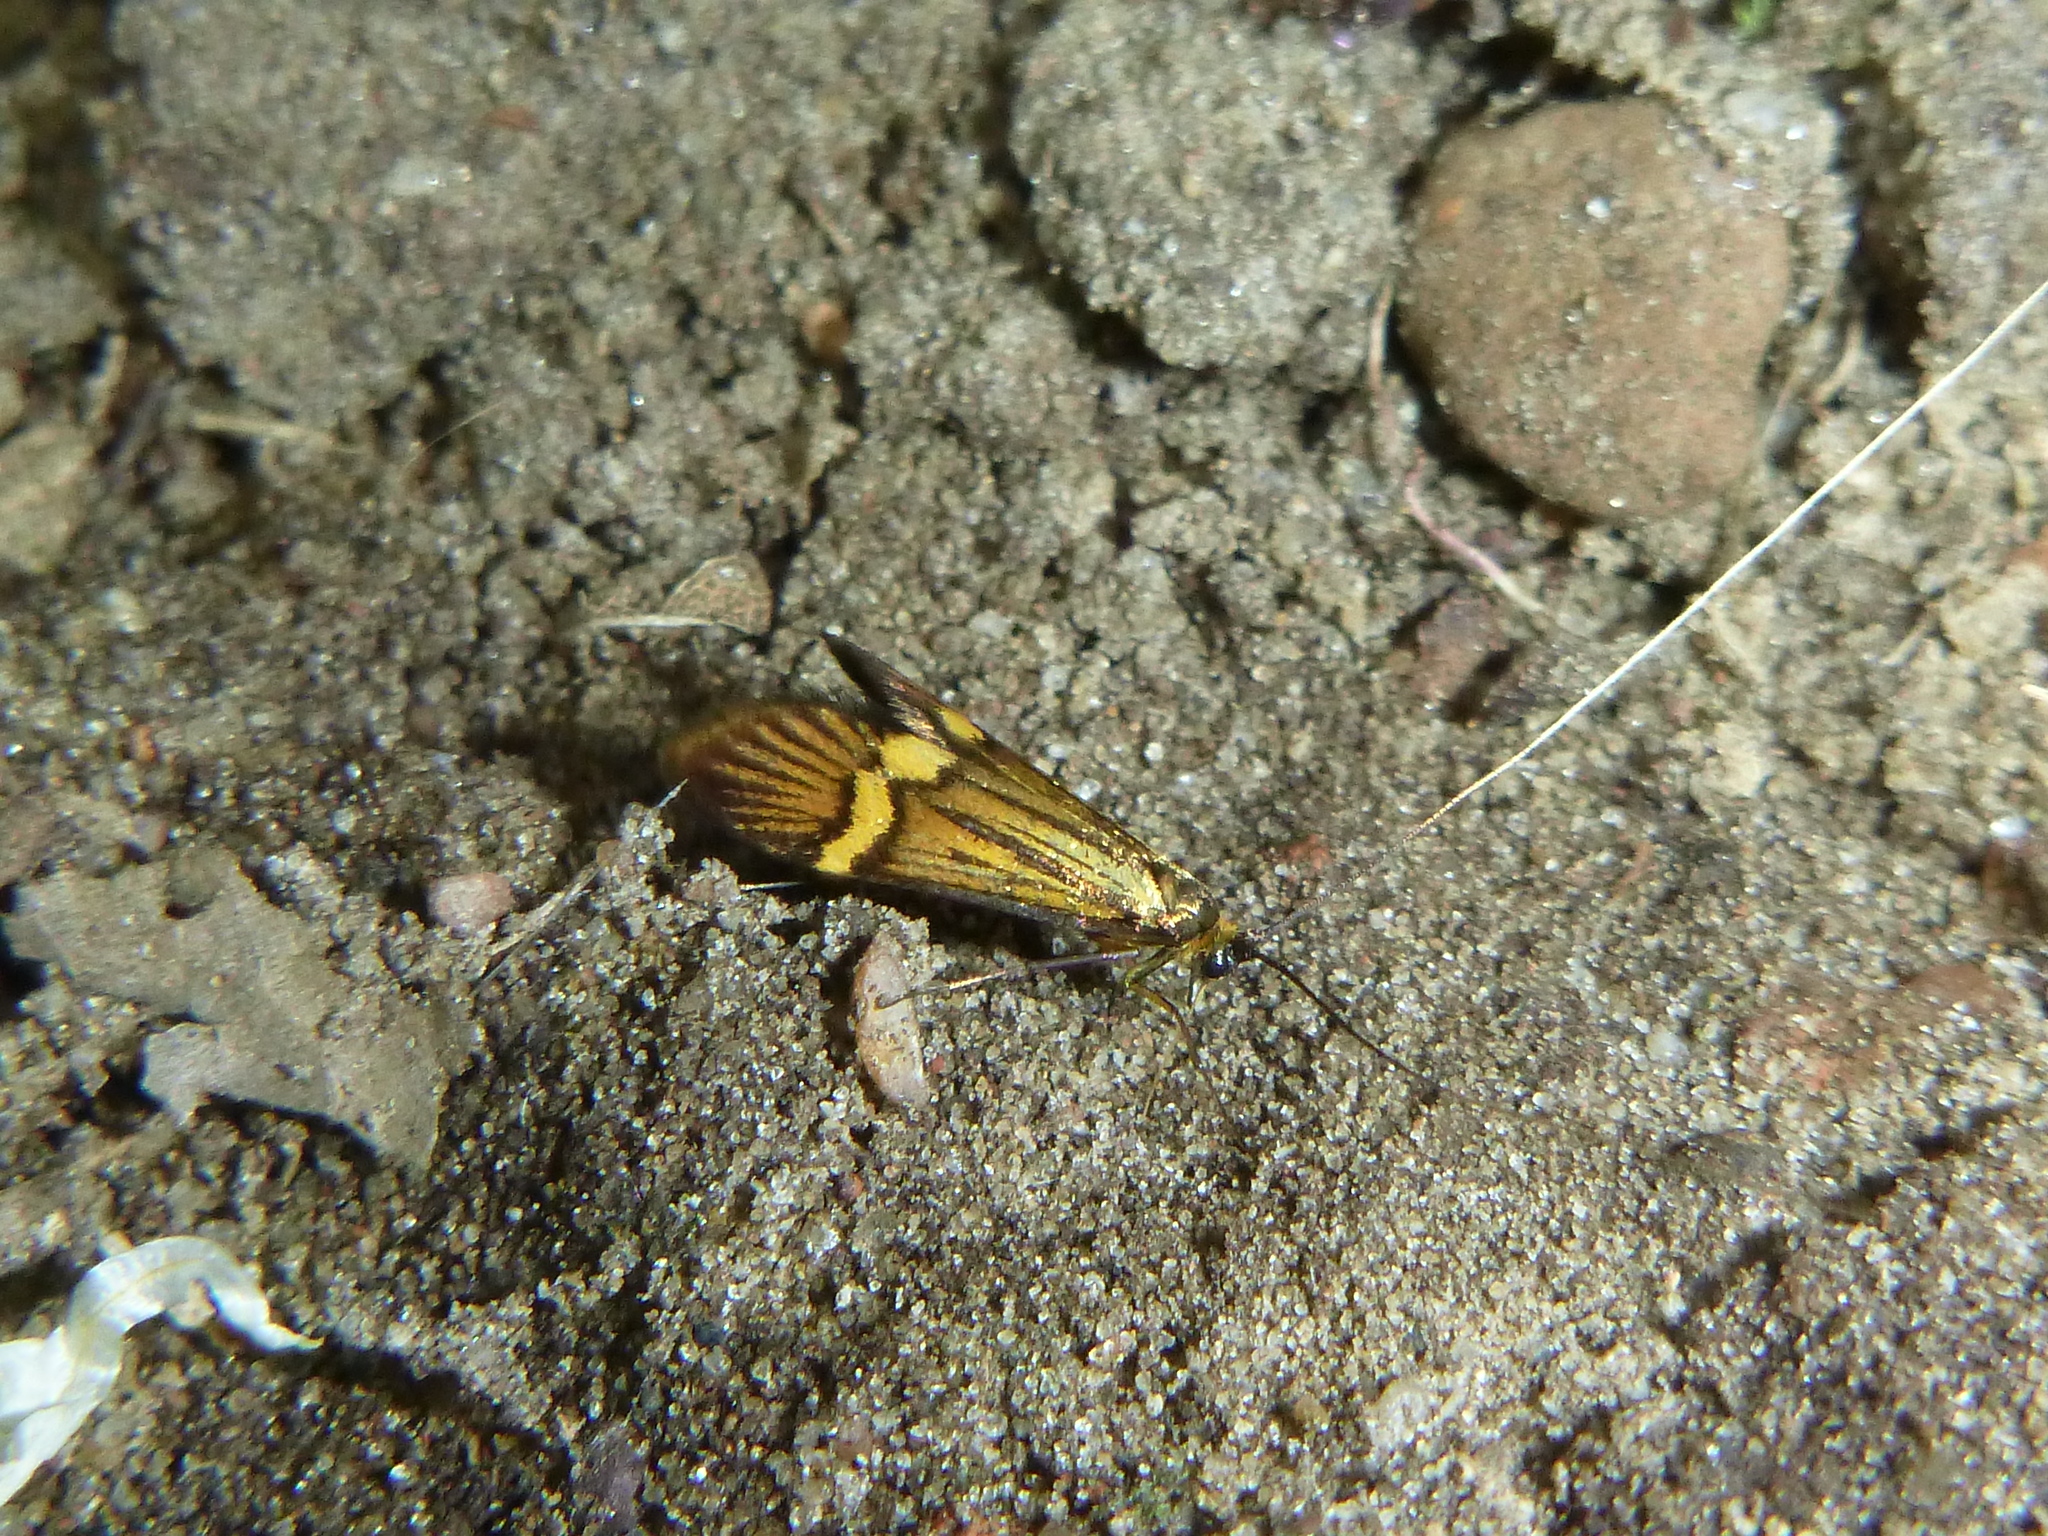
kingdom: Animalia
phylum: Arthropoda
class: Insecta
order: Lepidoptera
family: Adelidae
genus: Nemophora
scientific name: Nemophora degeerella
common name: Yellow-barred long-horn
